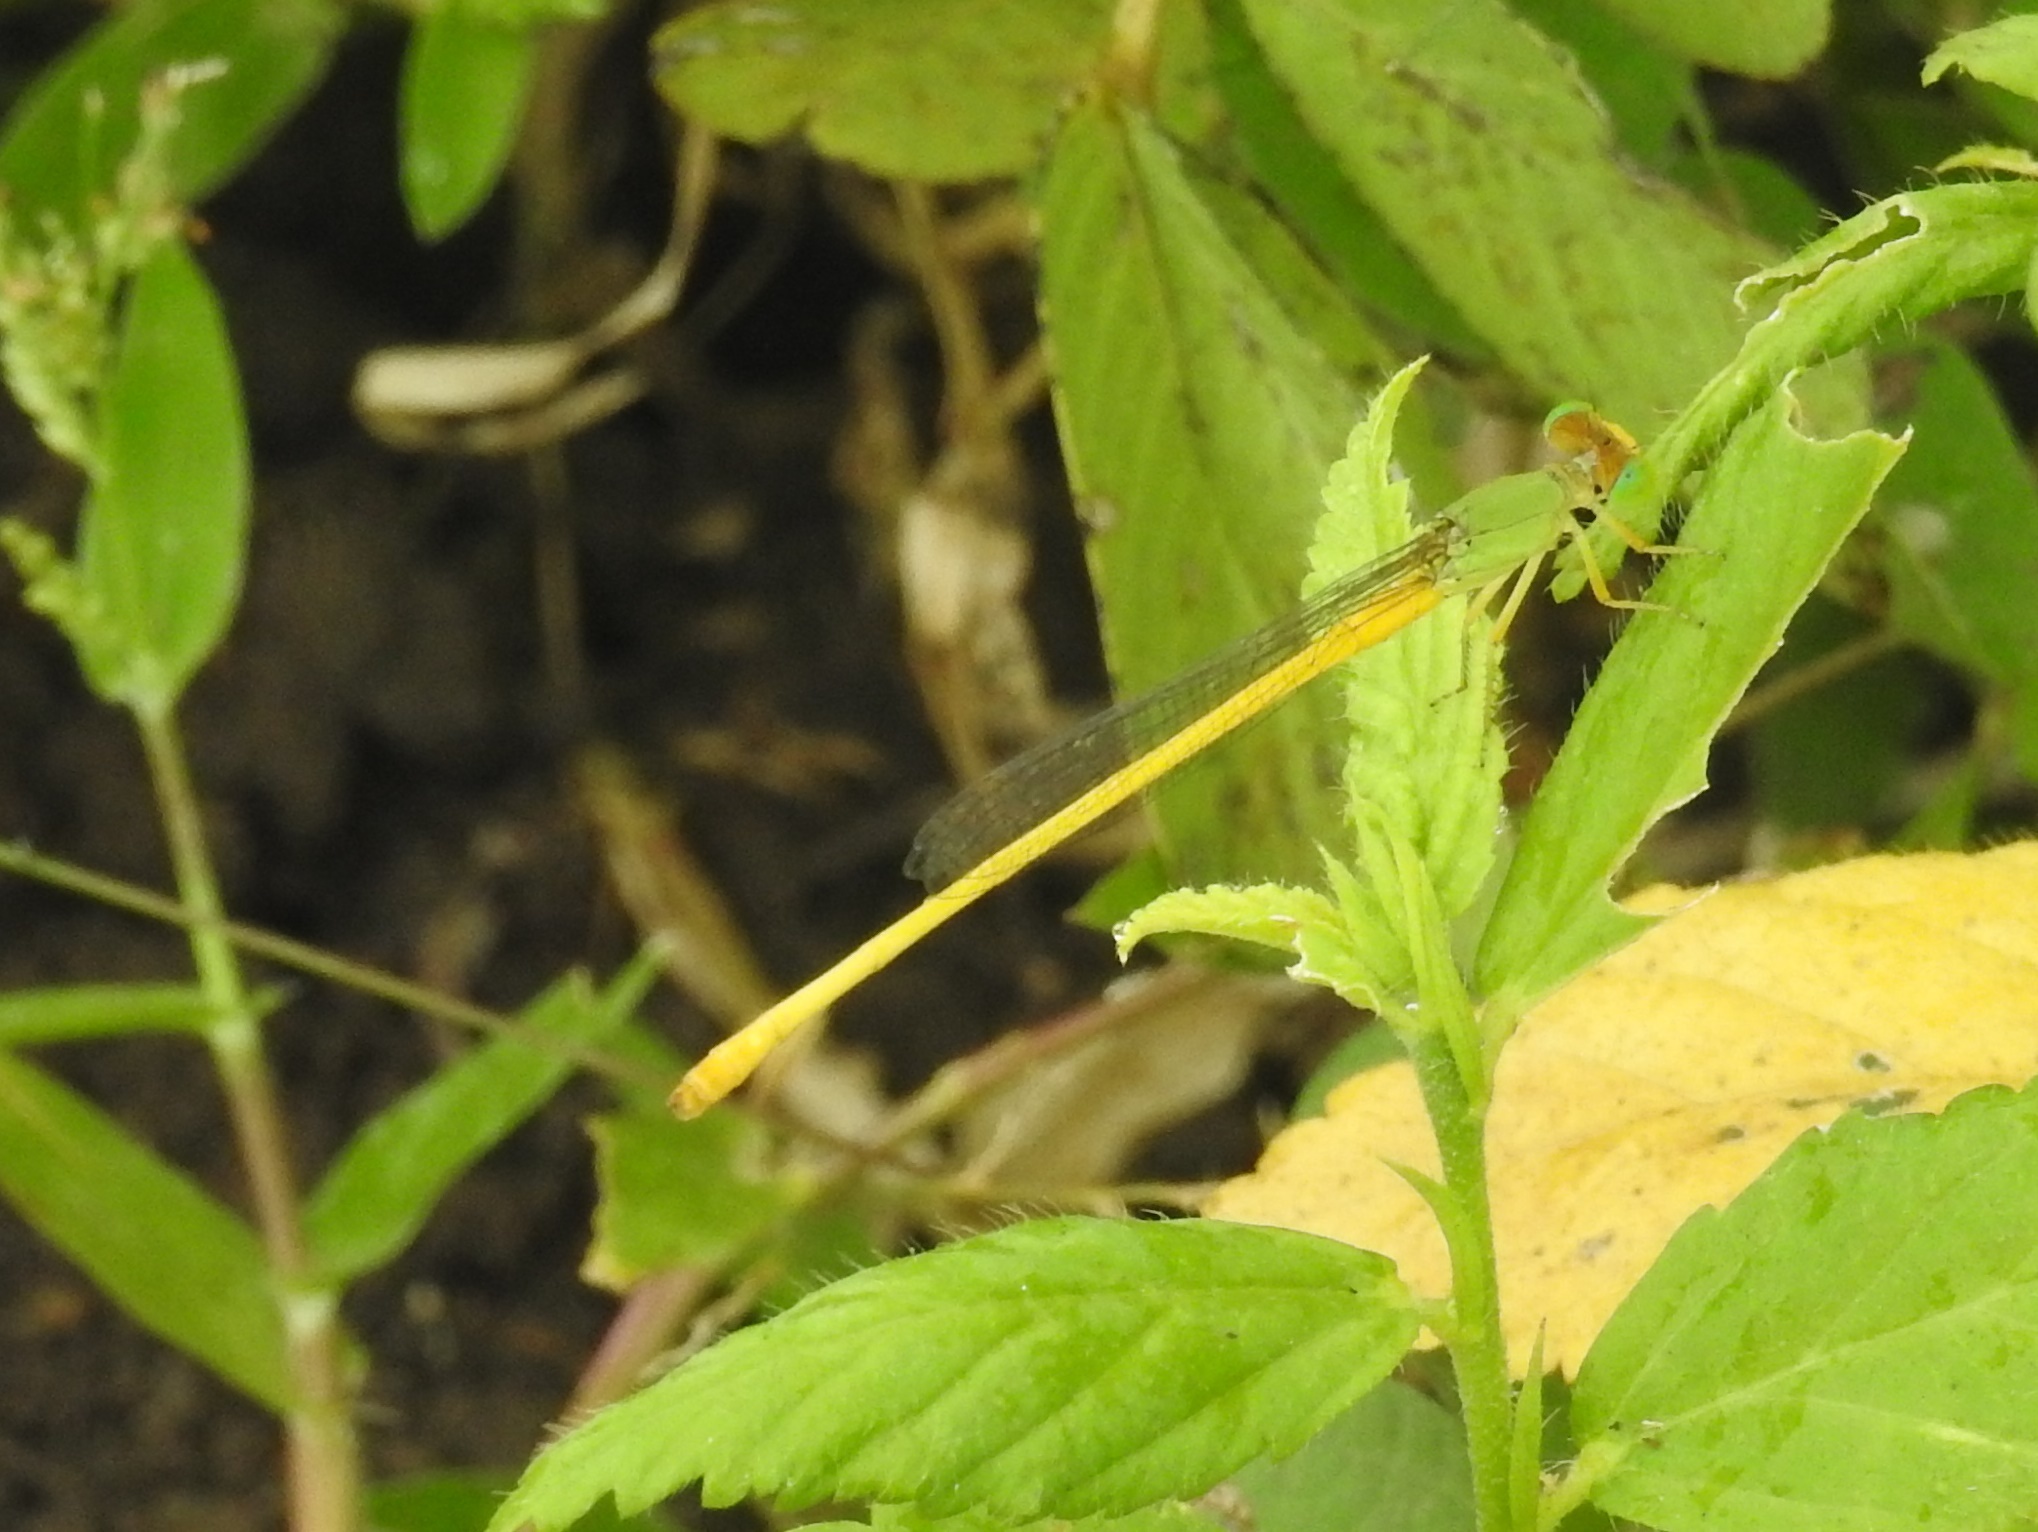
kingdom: Animalia
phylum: Arthropoda
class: Insecta
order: Odonata
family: Coenagrionidae
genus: Ceriagrion
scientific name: Ceriagrion coromandelianum
